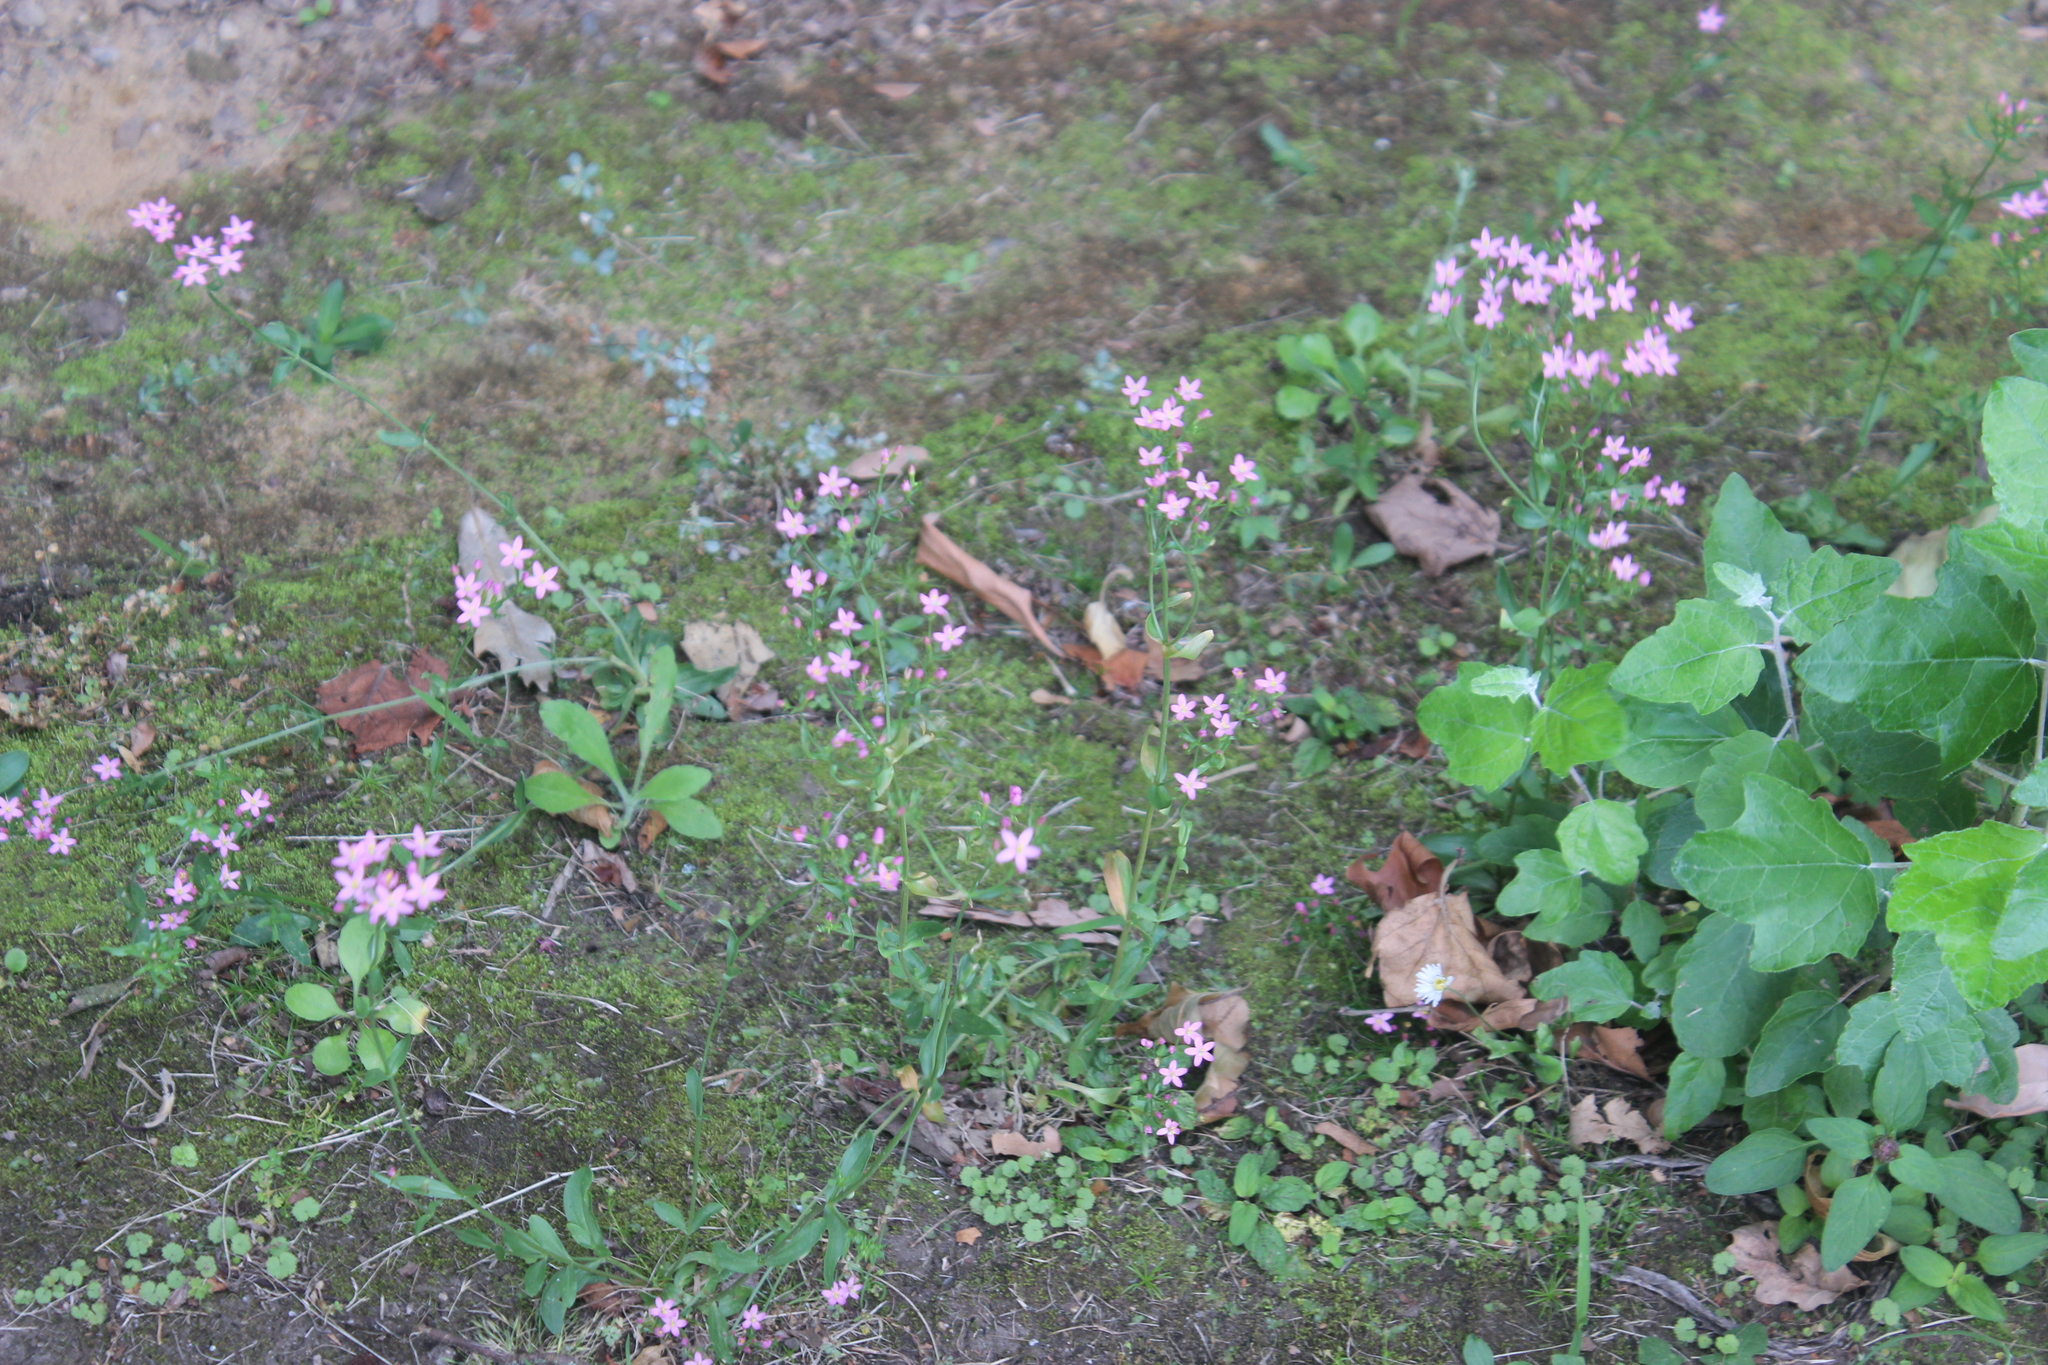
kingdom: Plantae
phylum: Tracheophyta
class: Magnoliopsida
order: Gentianales
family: Gentianaceae
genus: Centaurium
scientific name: Centaurium erythraea
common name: Common centaury
